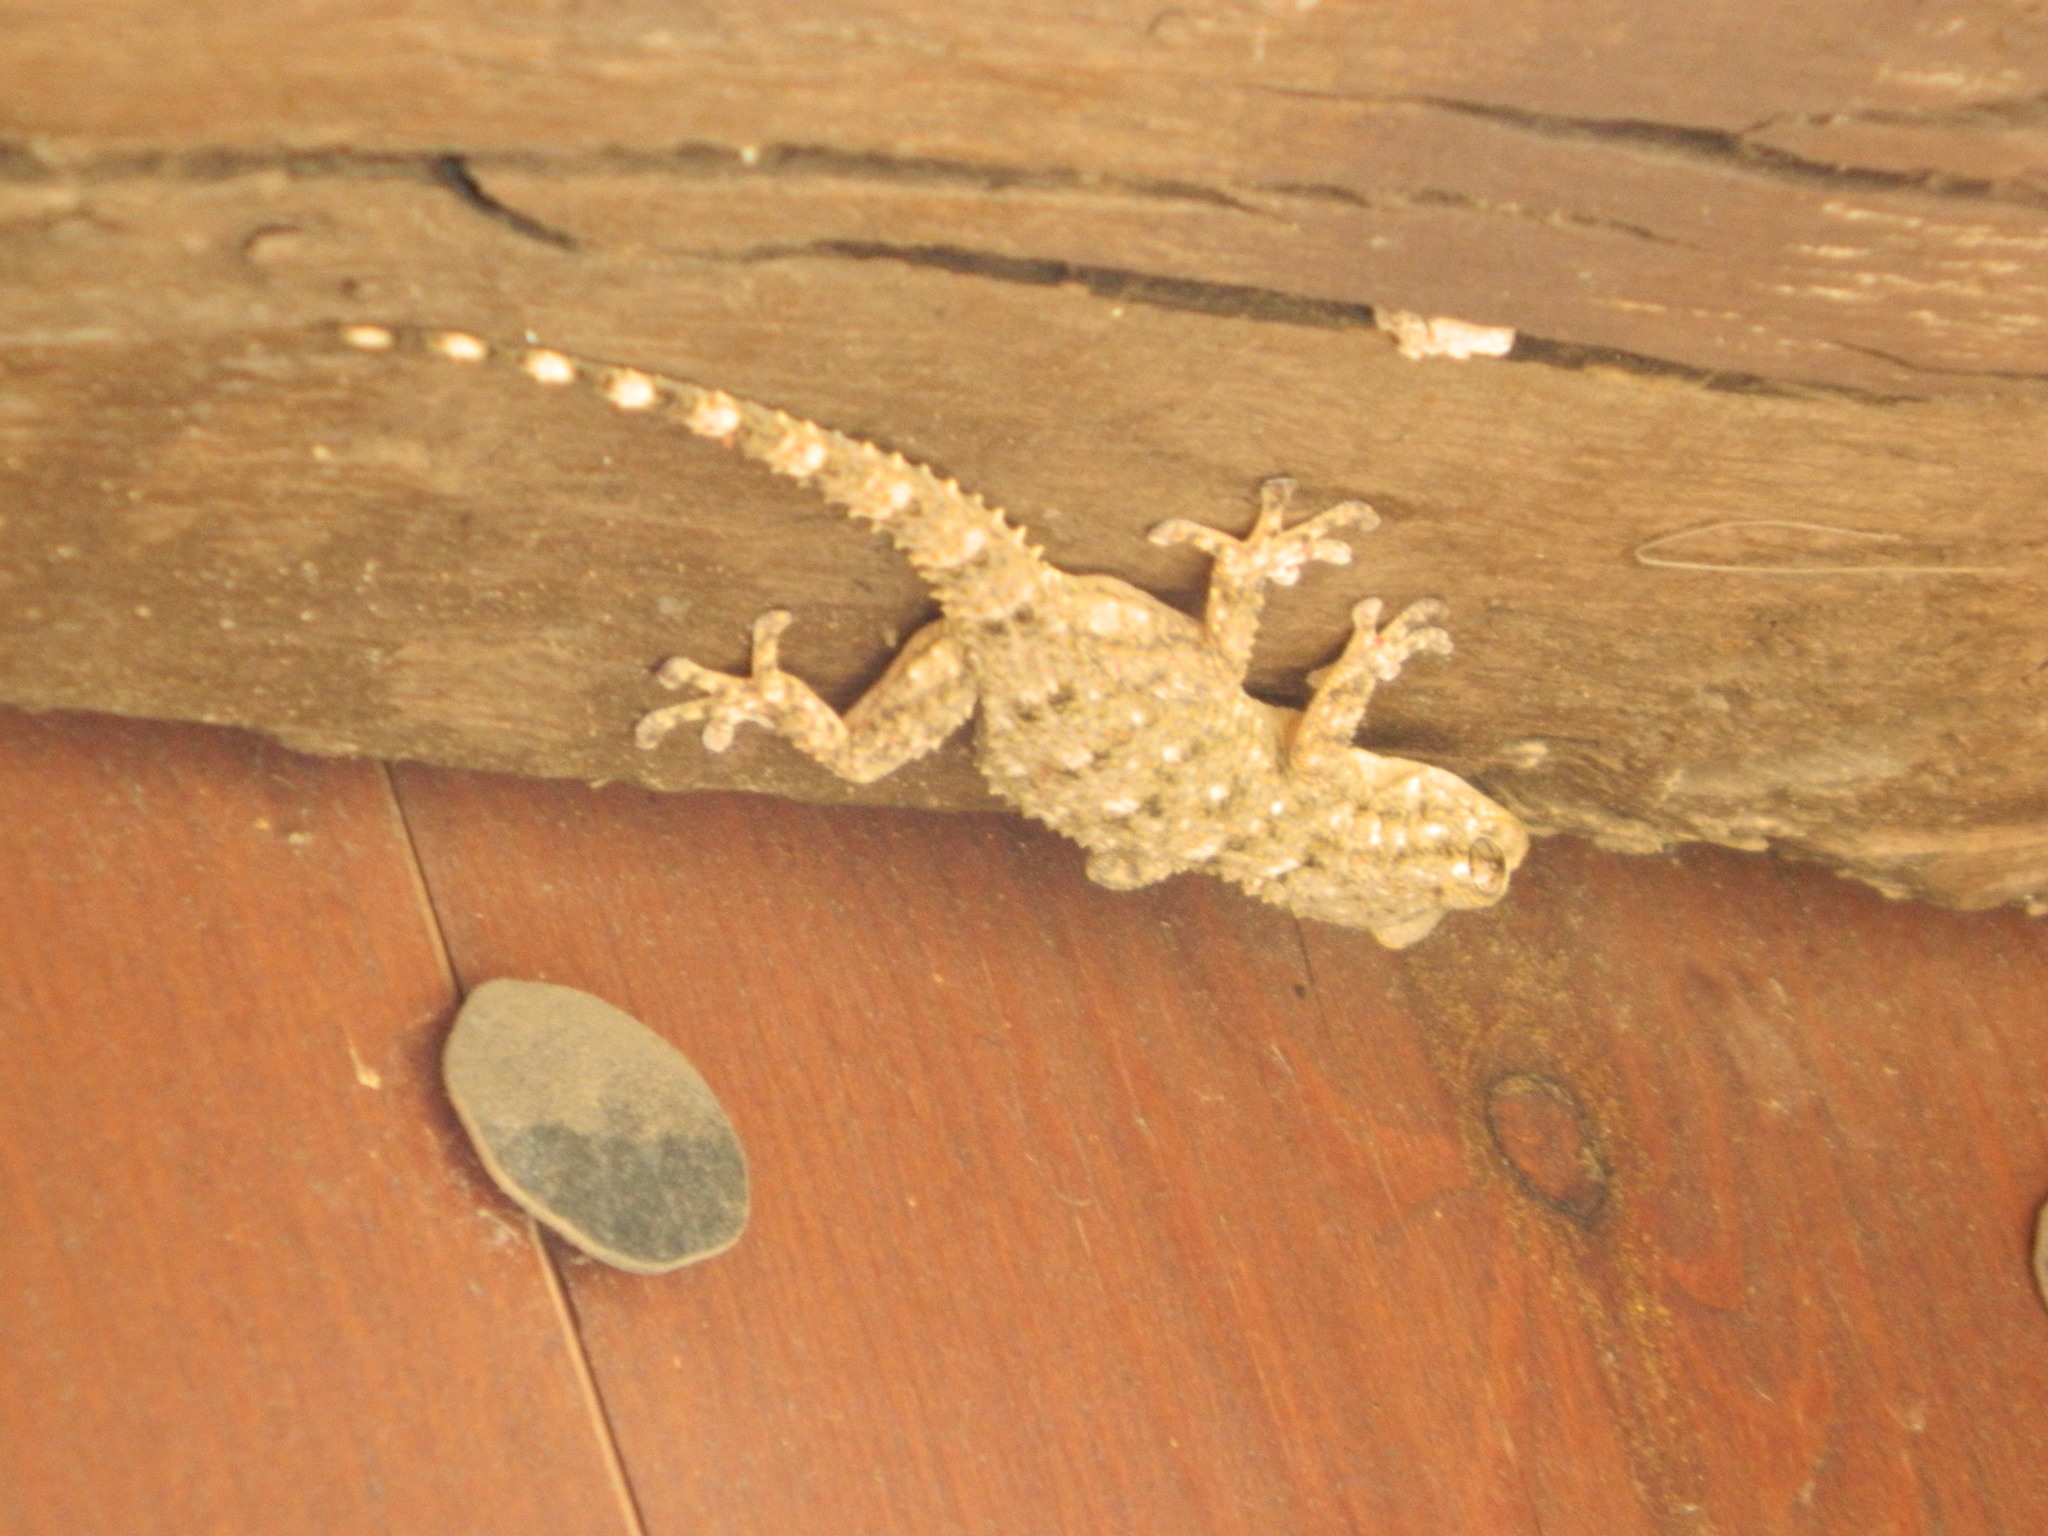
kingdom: Animalia
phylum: Chordata
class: Squamata
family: Phyllodactylidae
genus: Tarentola
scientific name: Tarentola mauritanica
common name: Moorish gecko
